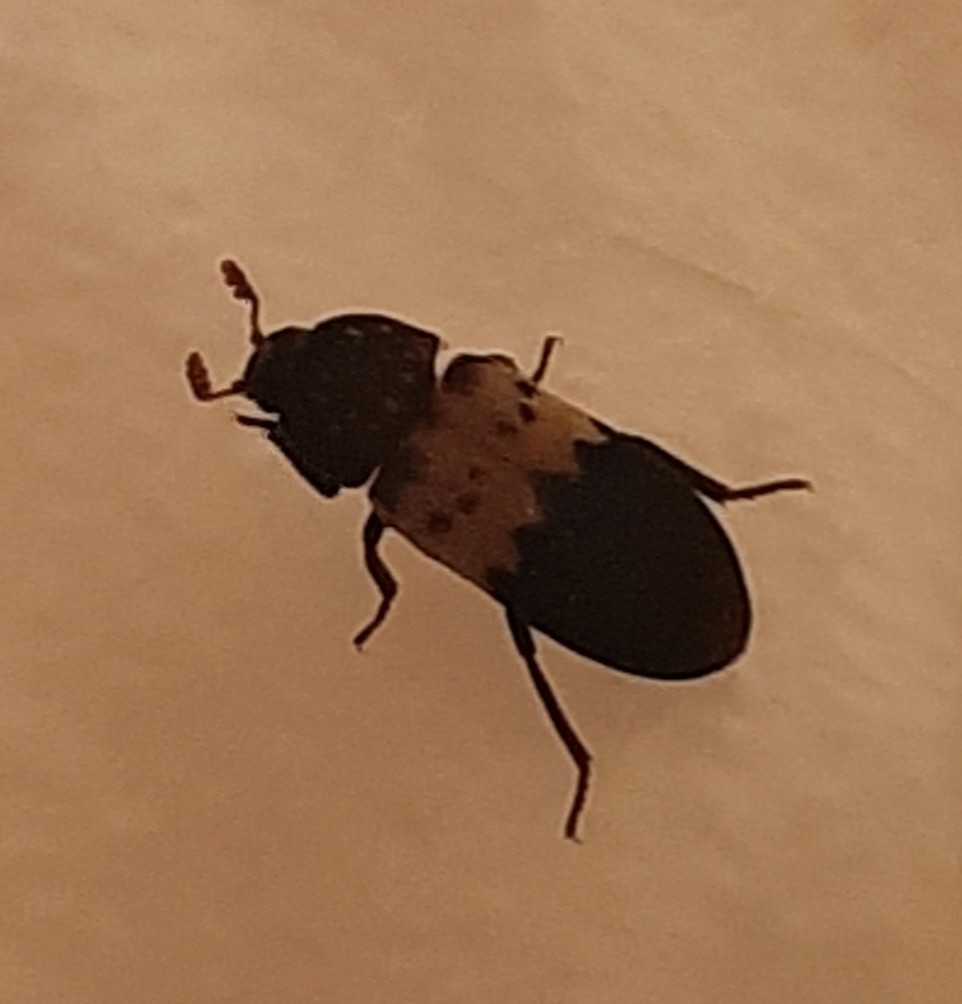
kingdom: Animalia
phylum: Arthropoda
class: Insecta
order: Coleoptera
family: Dermestidae
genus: Dermestes
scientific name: Dermestes lardarius
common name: Larder beetle
